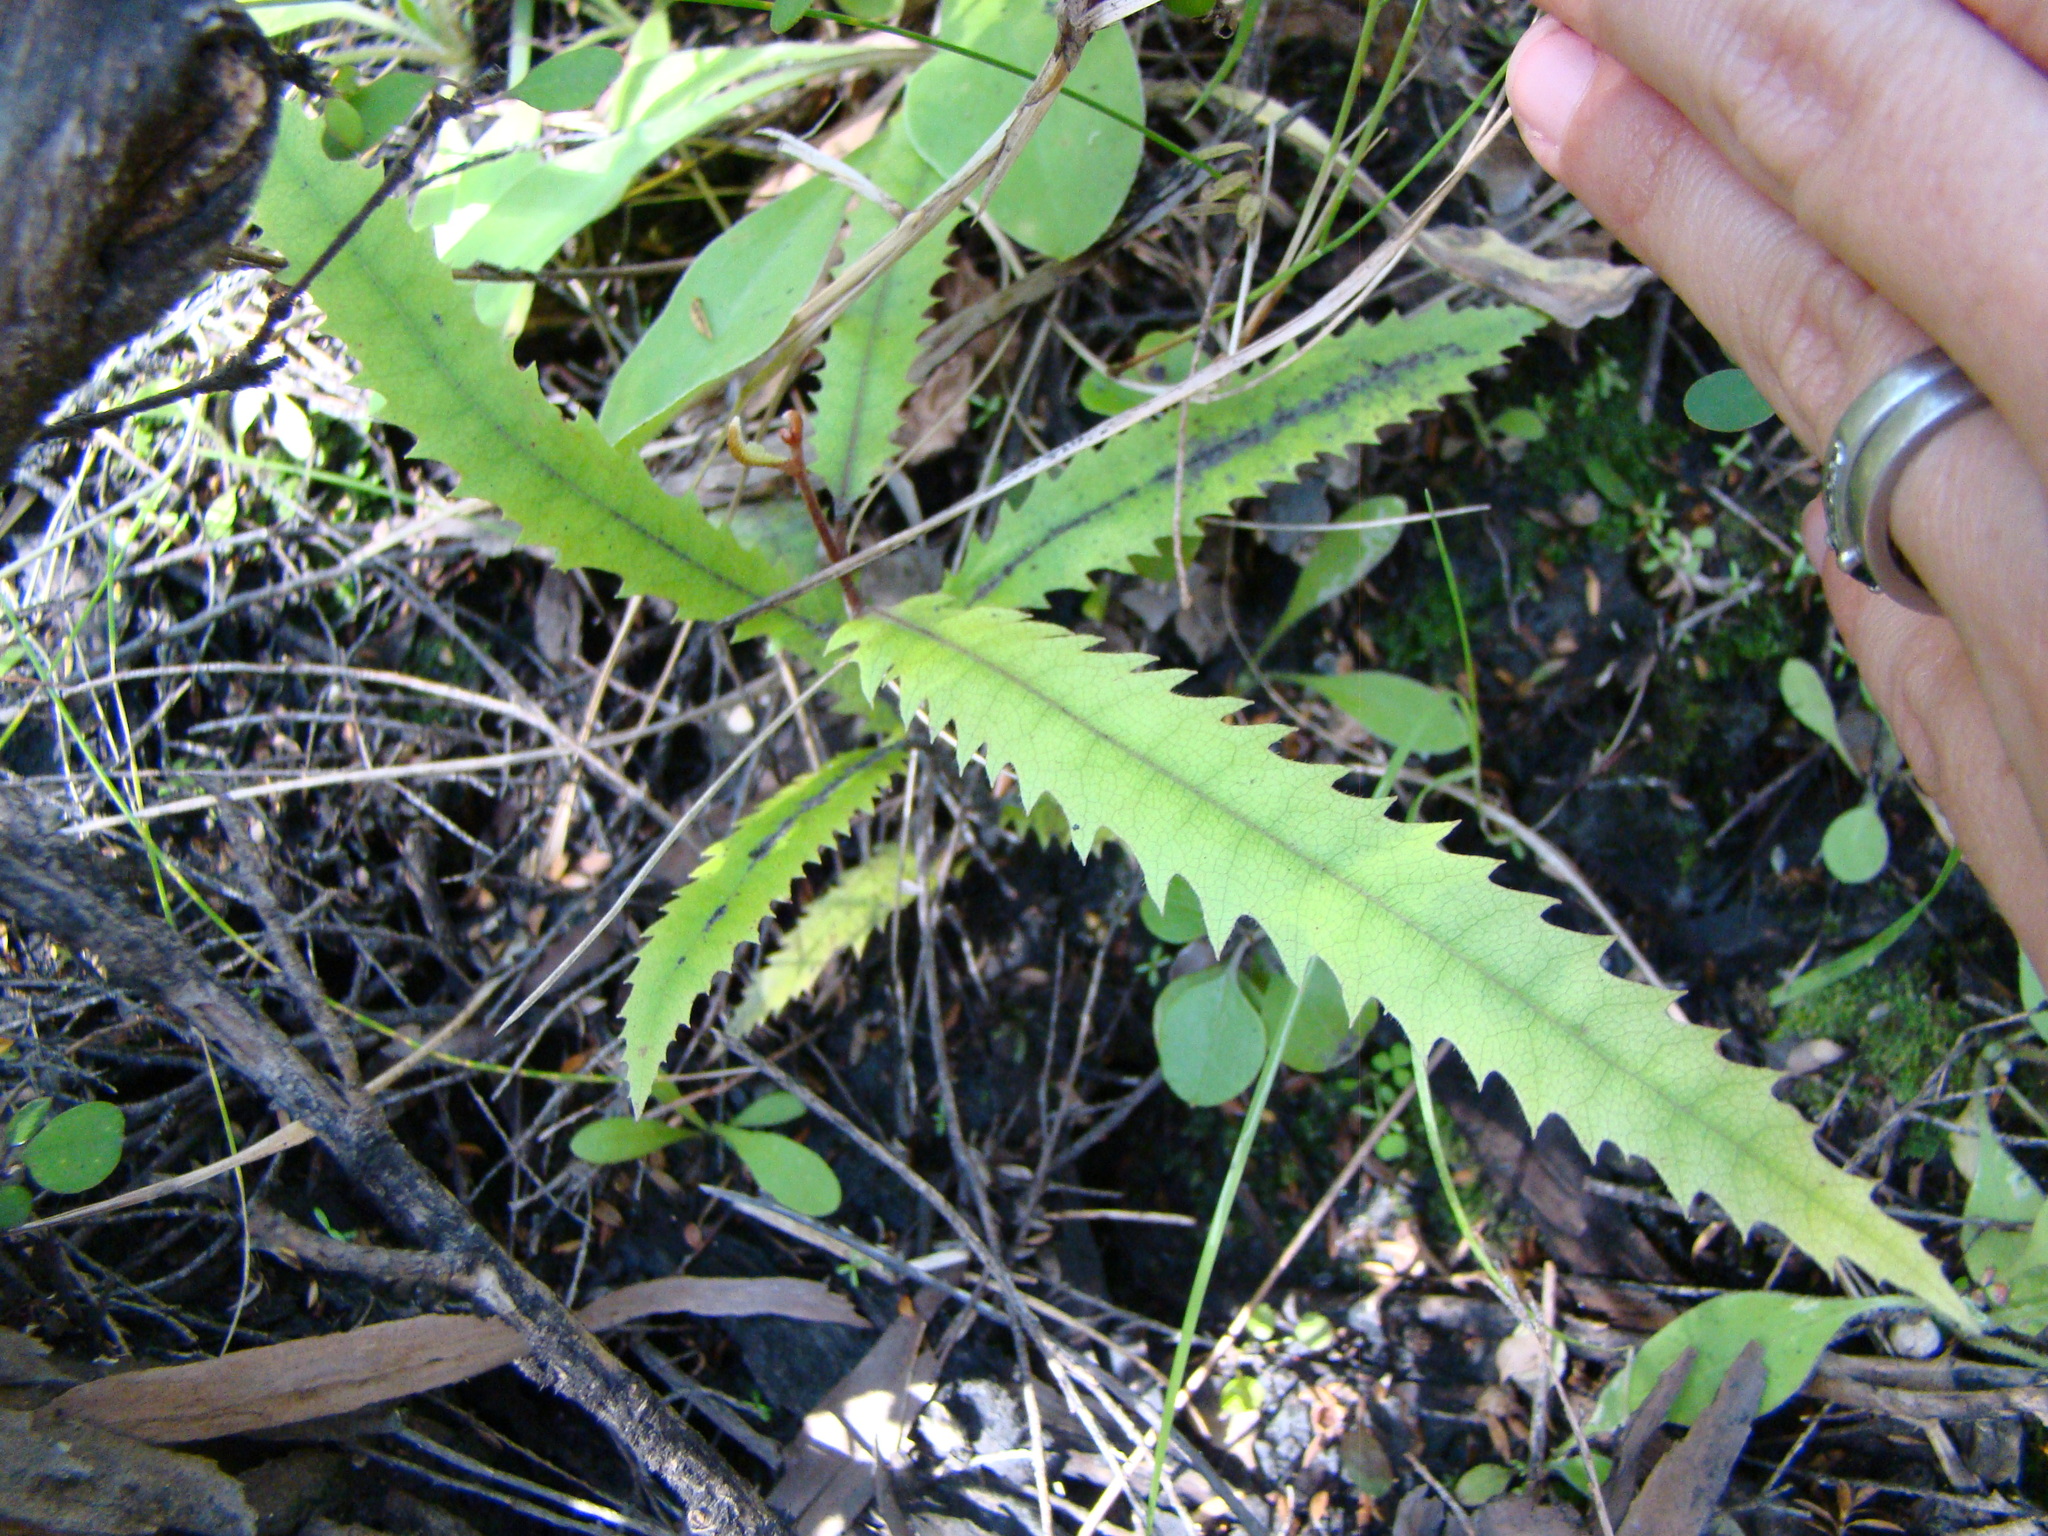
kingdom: Plantae
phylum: Tracheophyta
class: Magnoliopsida
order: Proteales
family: Proteaceae
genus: Knightia
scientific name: Knightia excelsa
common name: New zealand-honeysuckle
